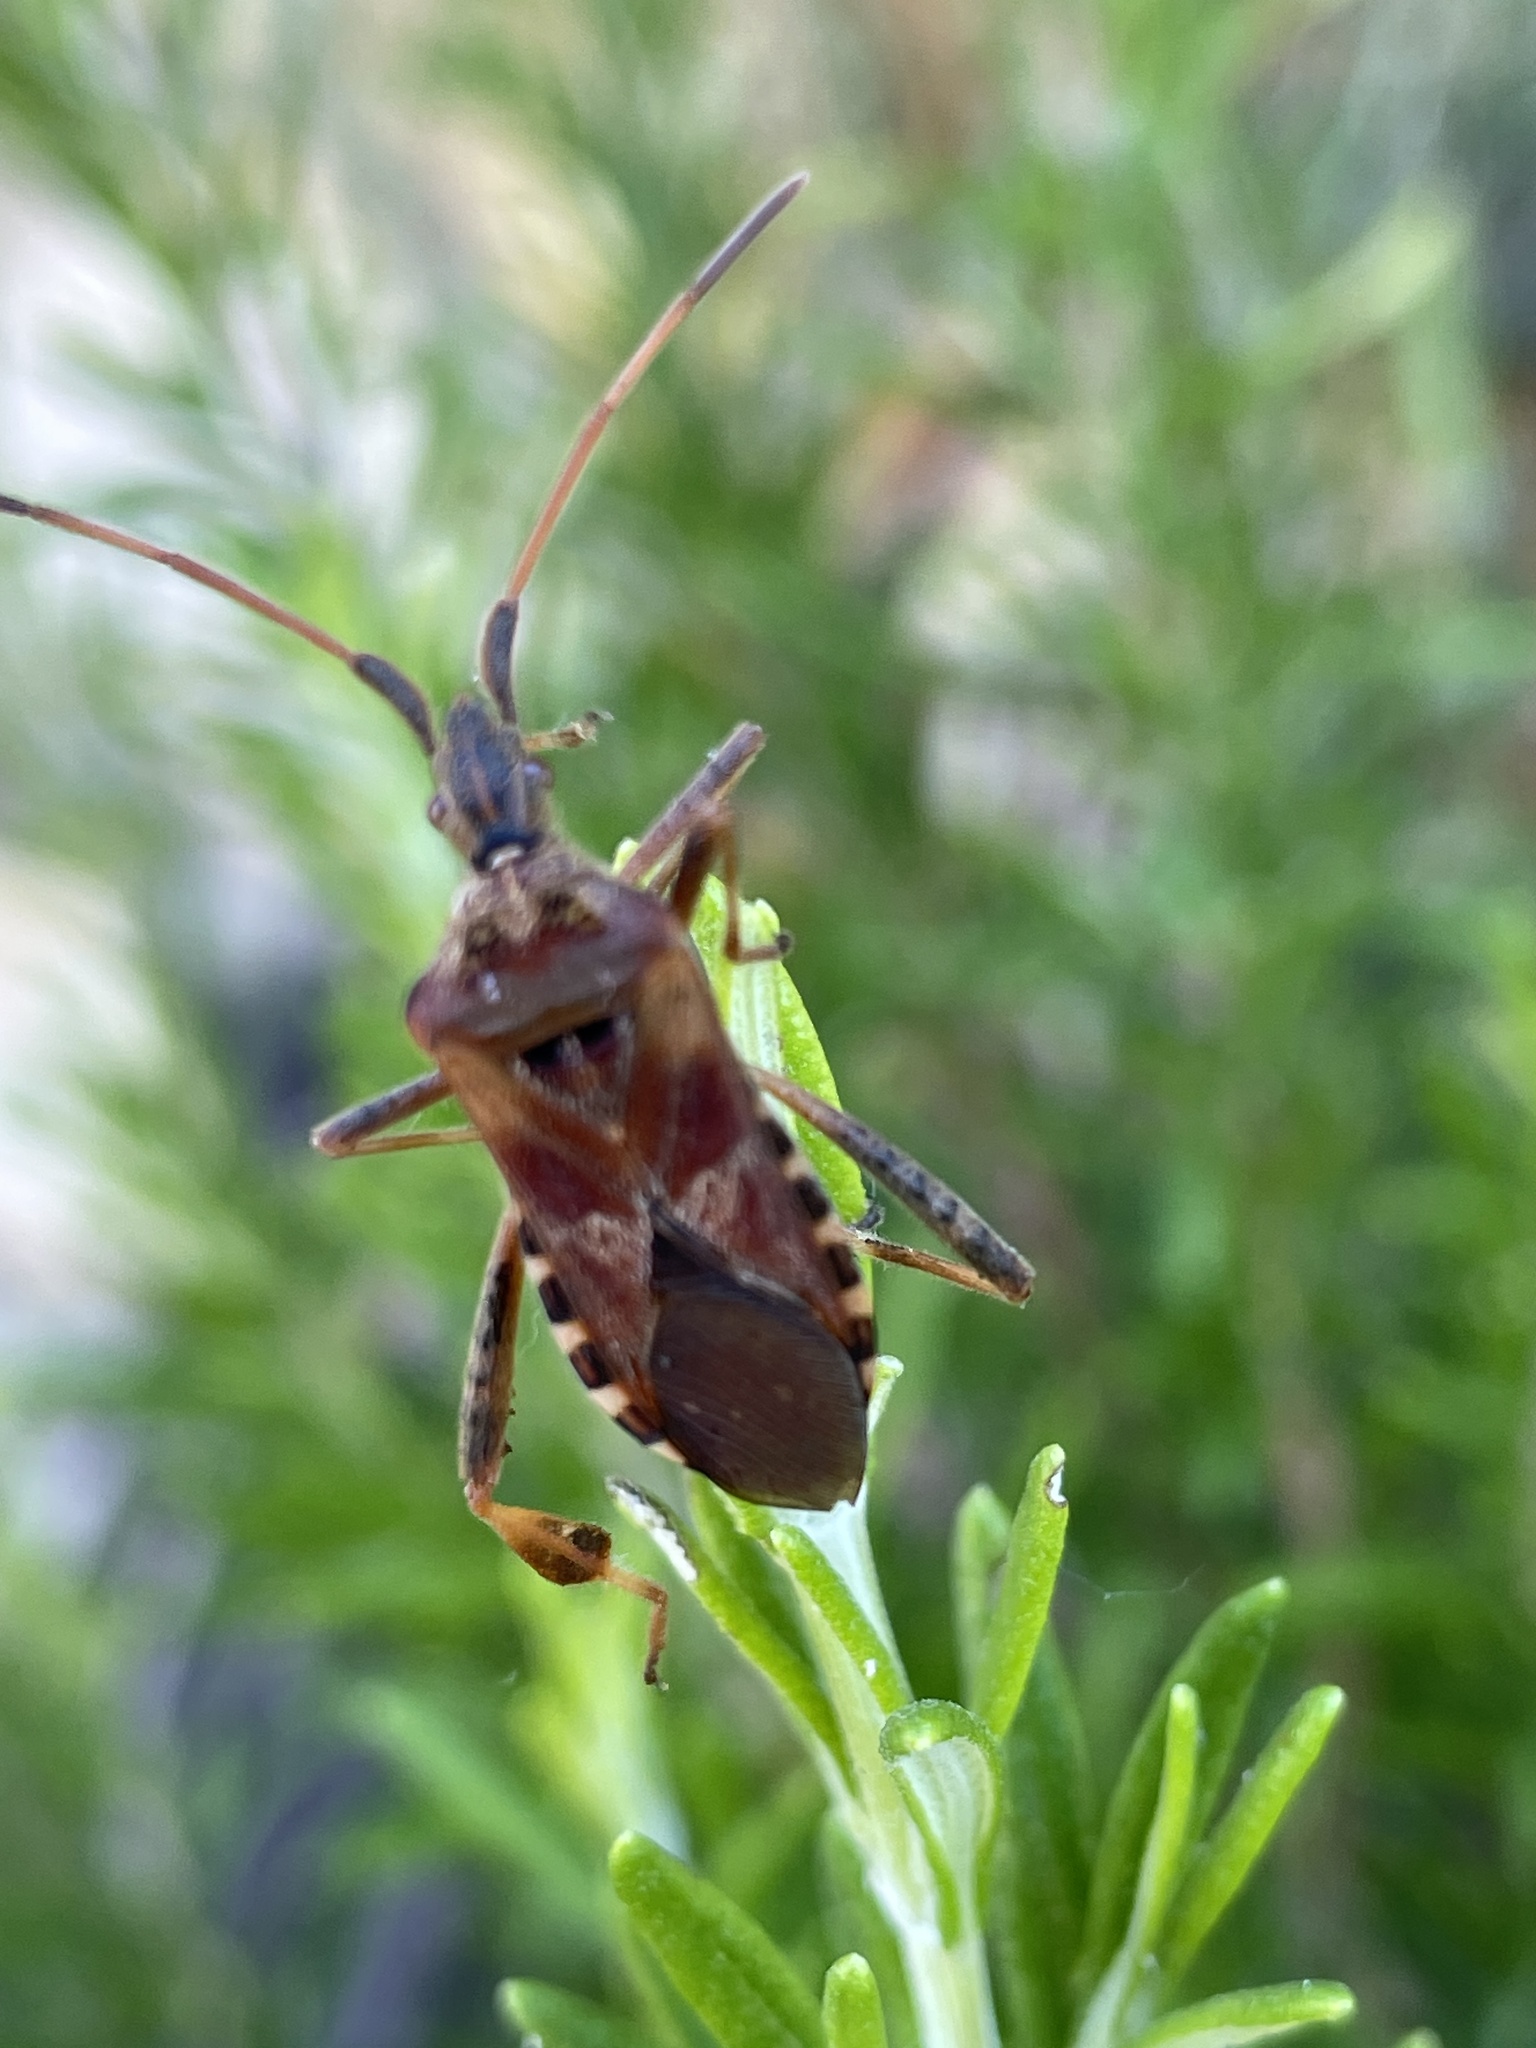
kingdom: Animalia
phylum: Arthropoda
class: Insecta
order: Hemiptera
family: Coreidae
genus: Leptoglossus
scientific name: Leptoglossus occidentalis
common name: Western conifer-seed bug
